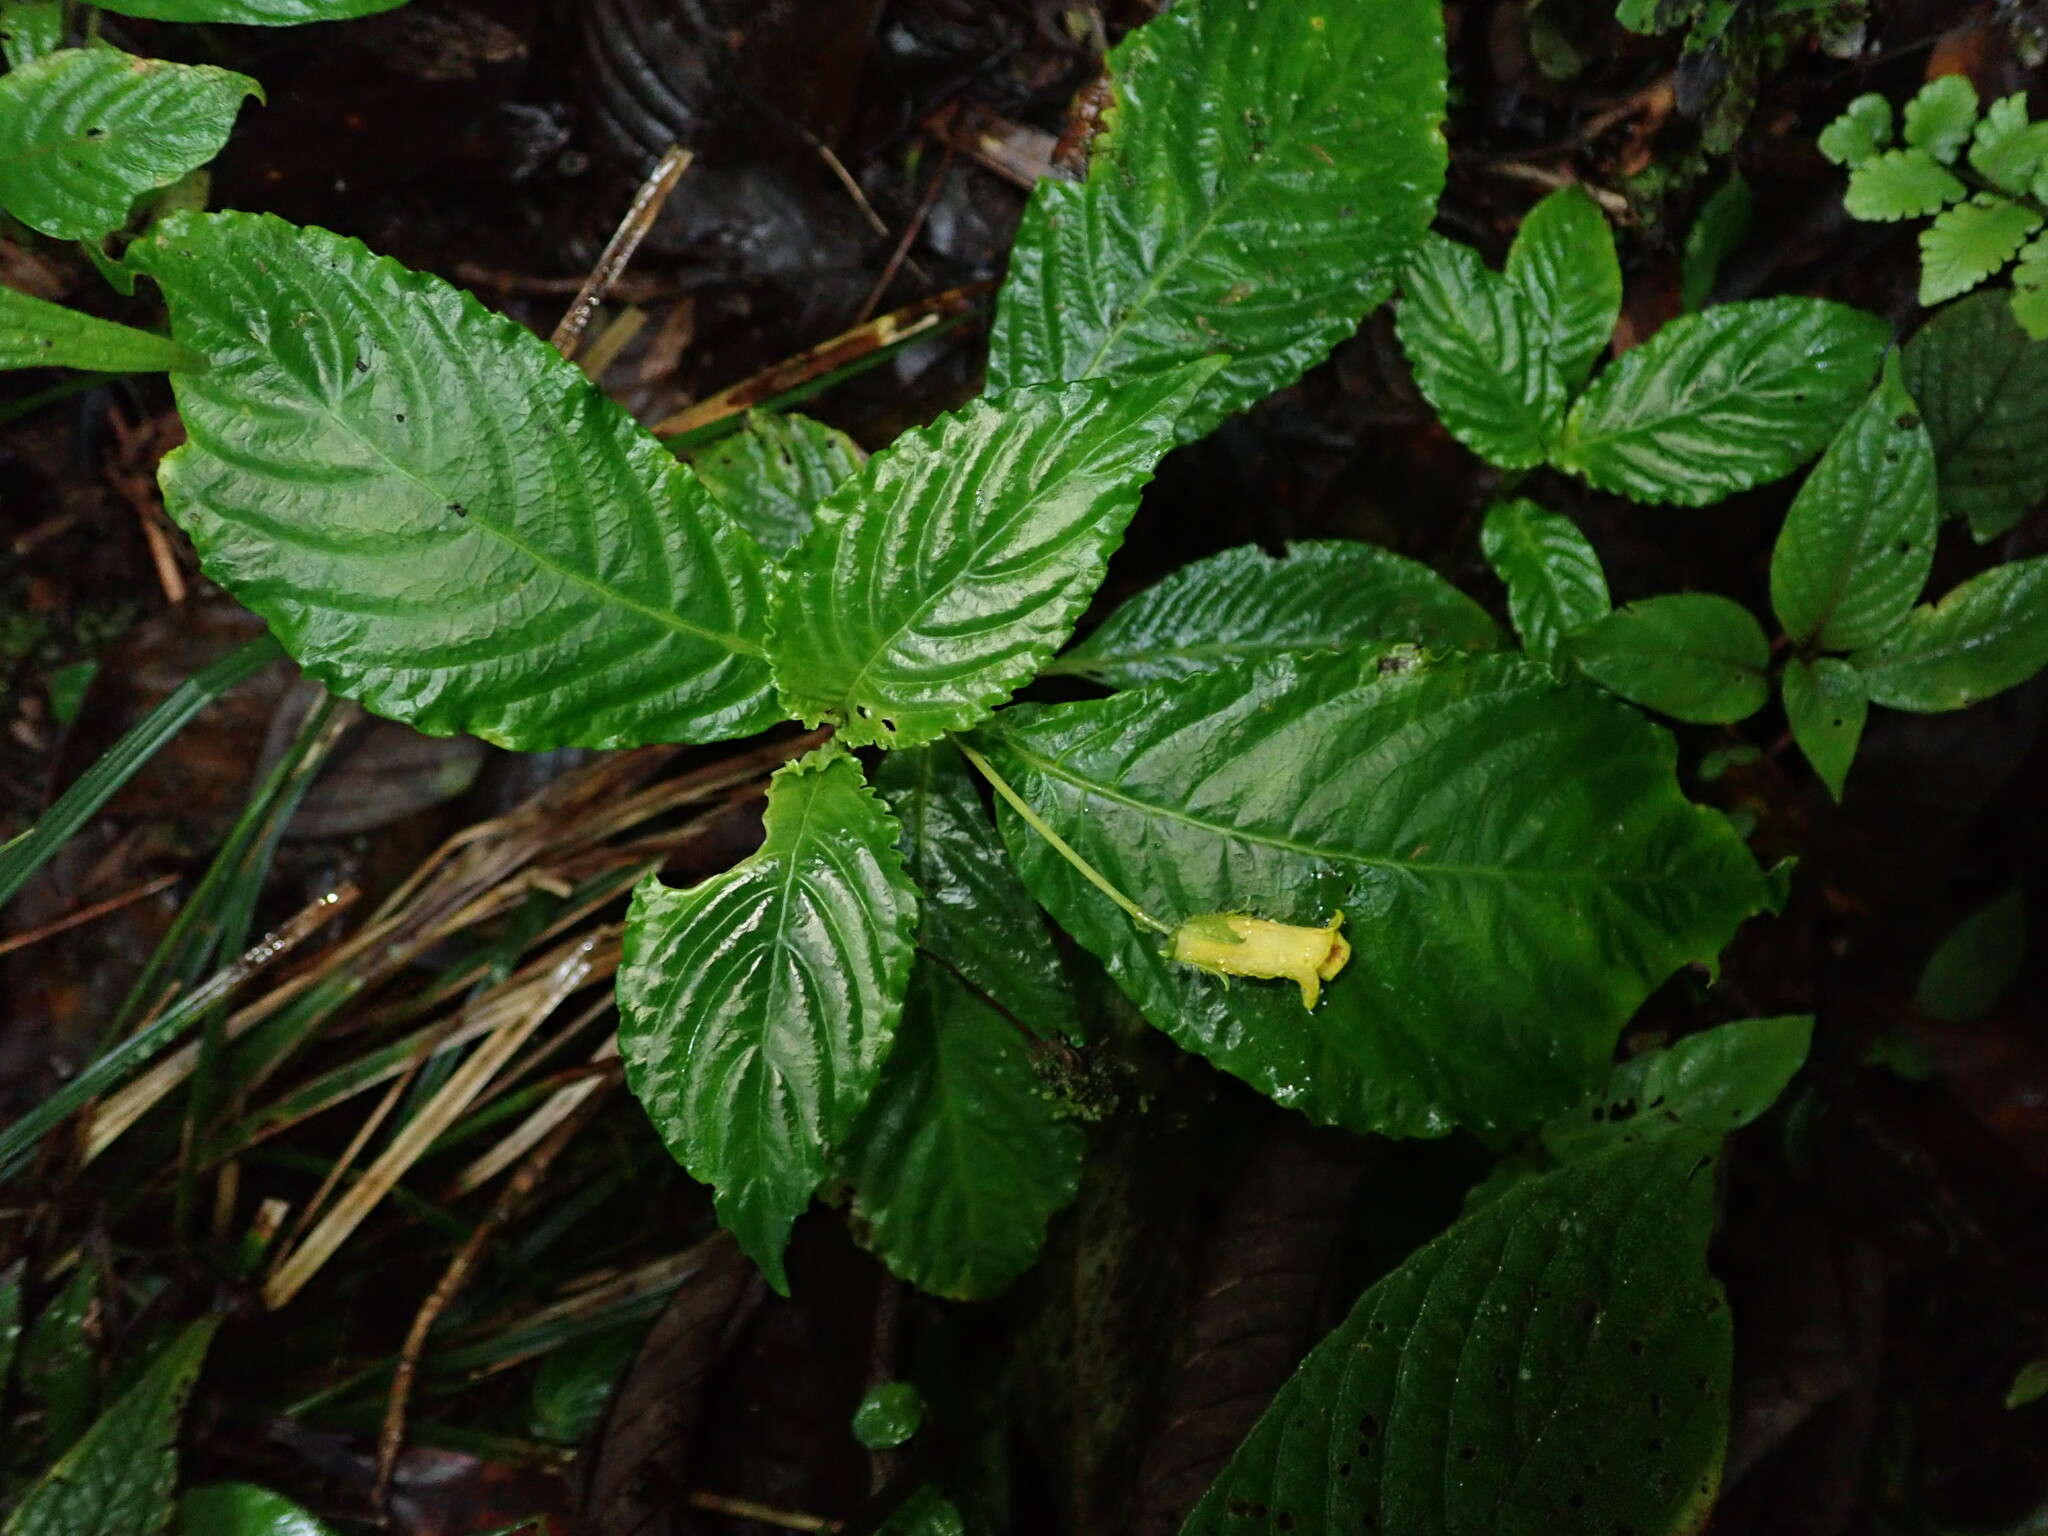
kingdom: Plantae
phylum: Tracheophyta
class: Magnoliopsida
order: Lamiales
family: Gesneriaceae
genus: Gasteranthus
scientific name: Gasteranthus wendlandianus
